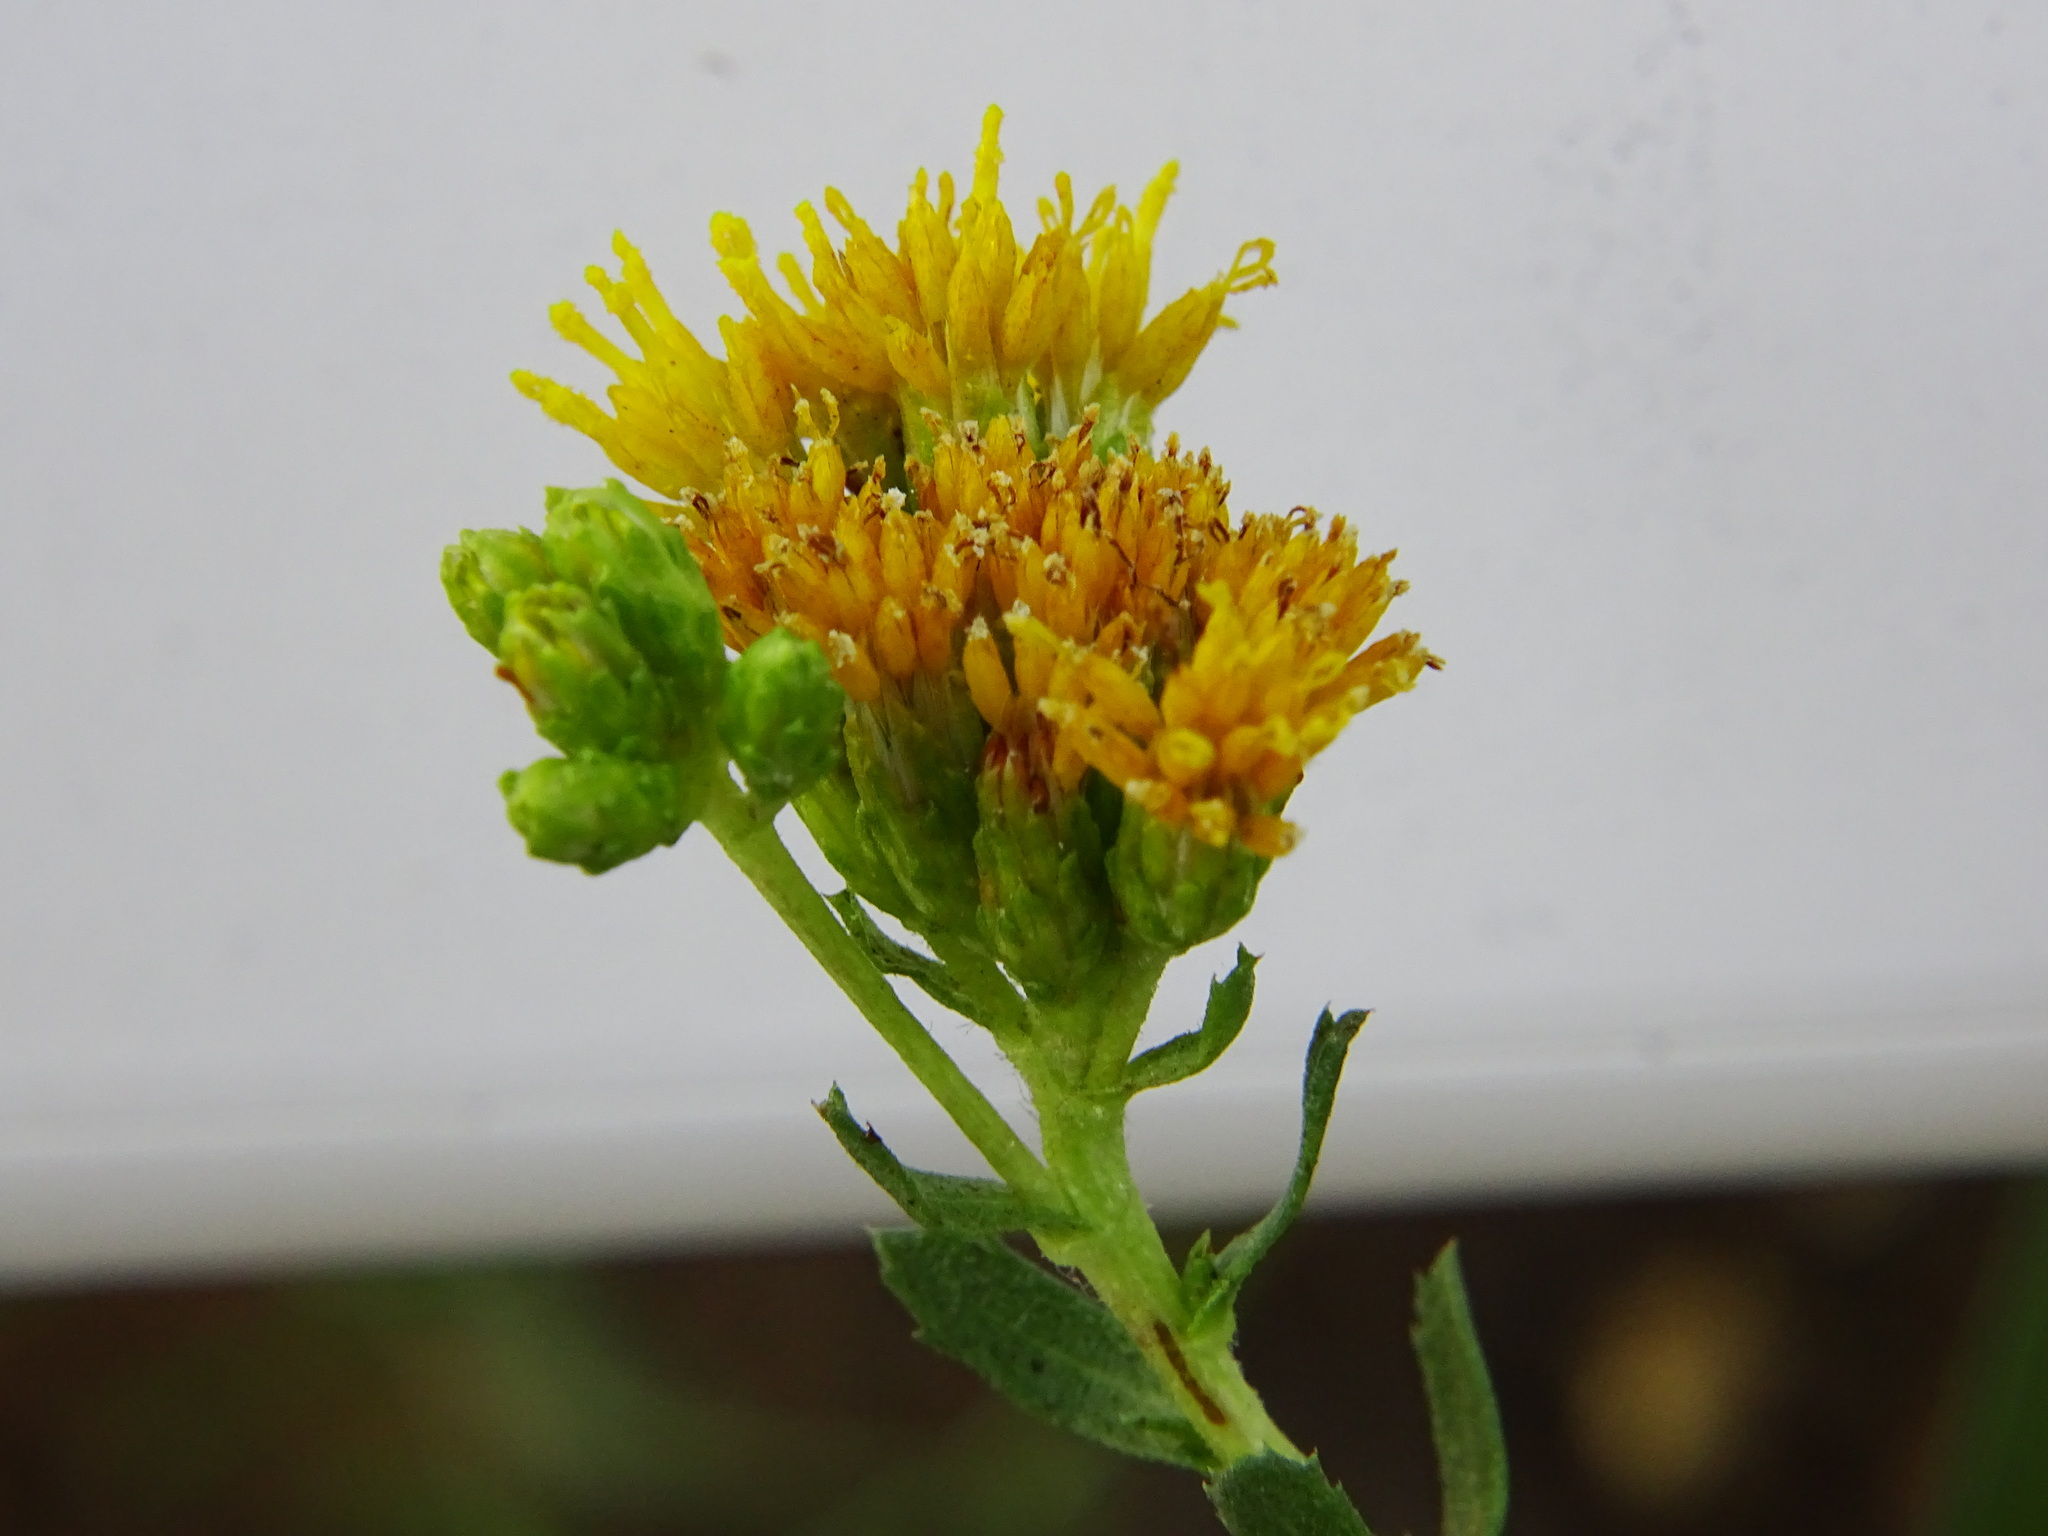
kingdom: Plantae
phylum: Tracheophyta
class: Magnoliopsida
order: Asterales
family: Asteraceae
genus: Isocoma
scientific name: Isocoma menziesii
